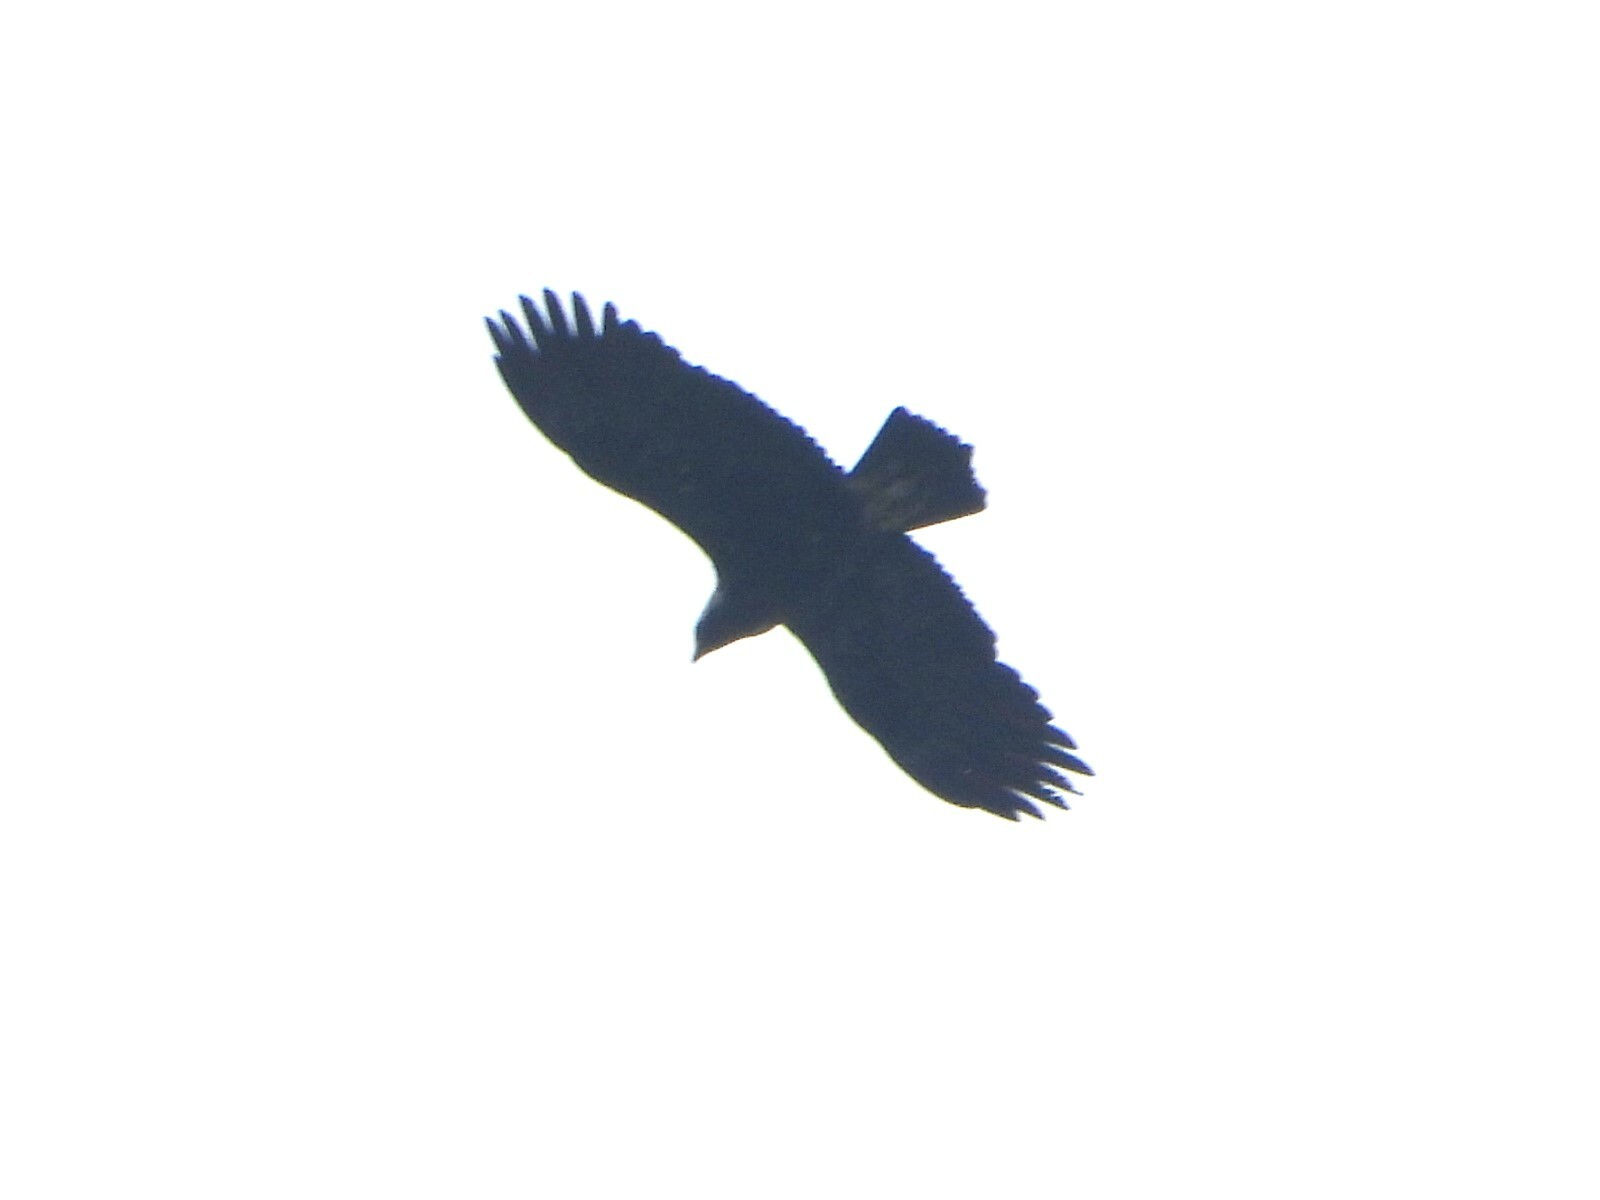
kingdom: Animalia
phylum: Chordata
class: Aves
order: Accipitriformes
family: Accipitridae
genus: Aquila
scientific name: Aquila heliaca
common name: Eastern imperial eagle
